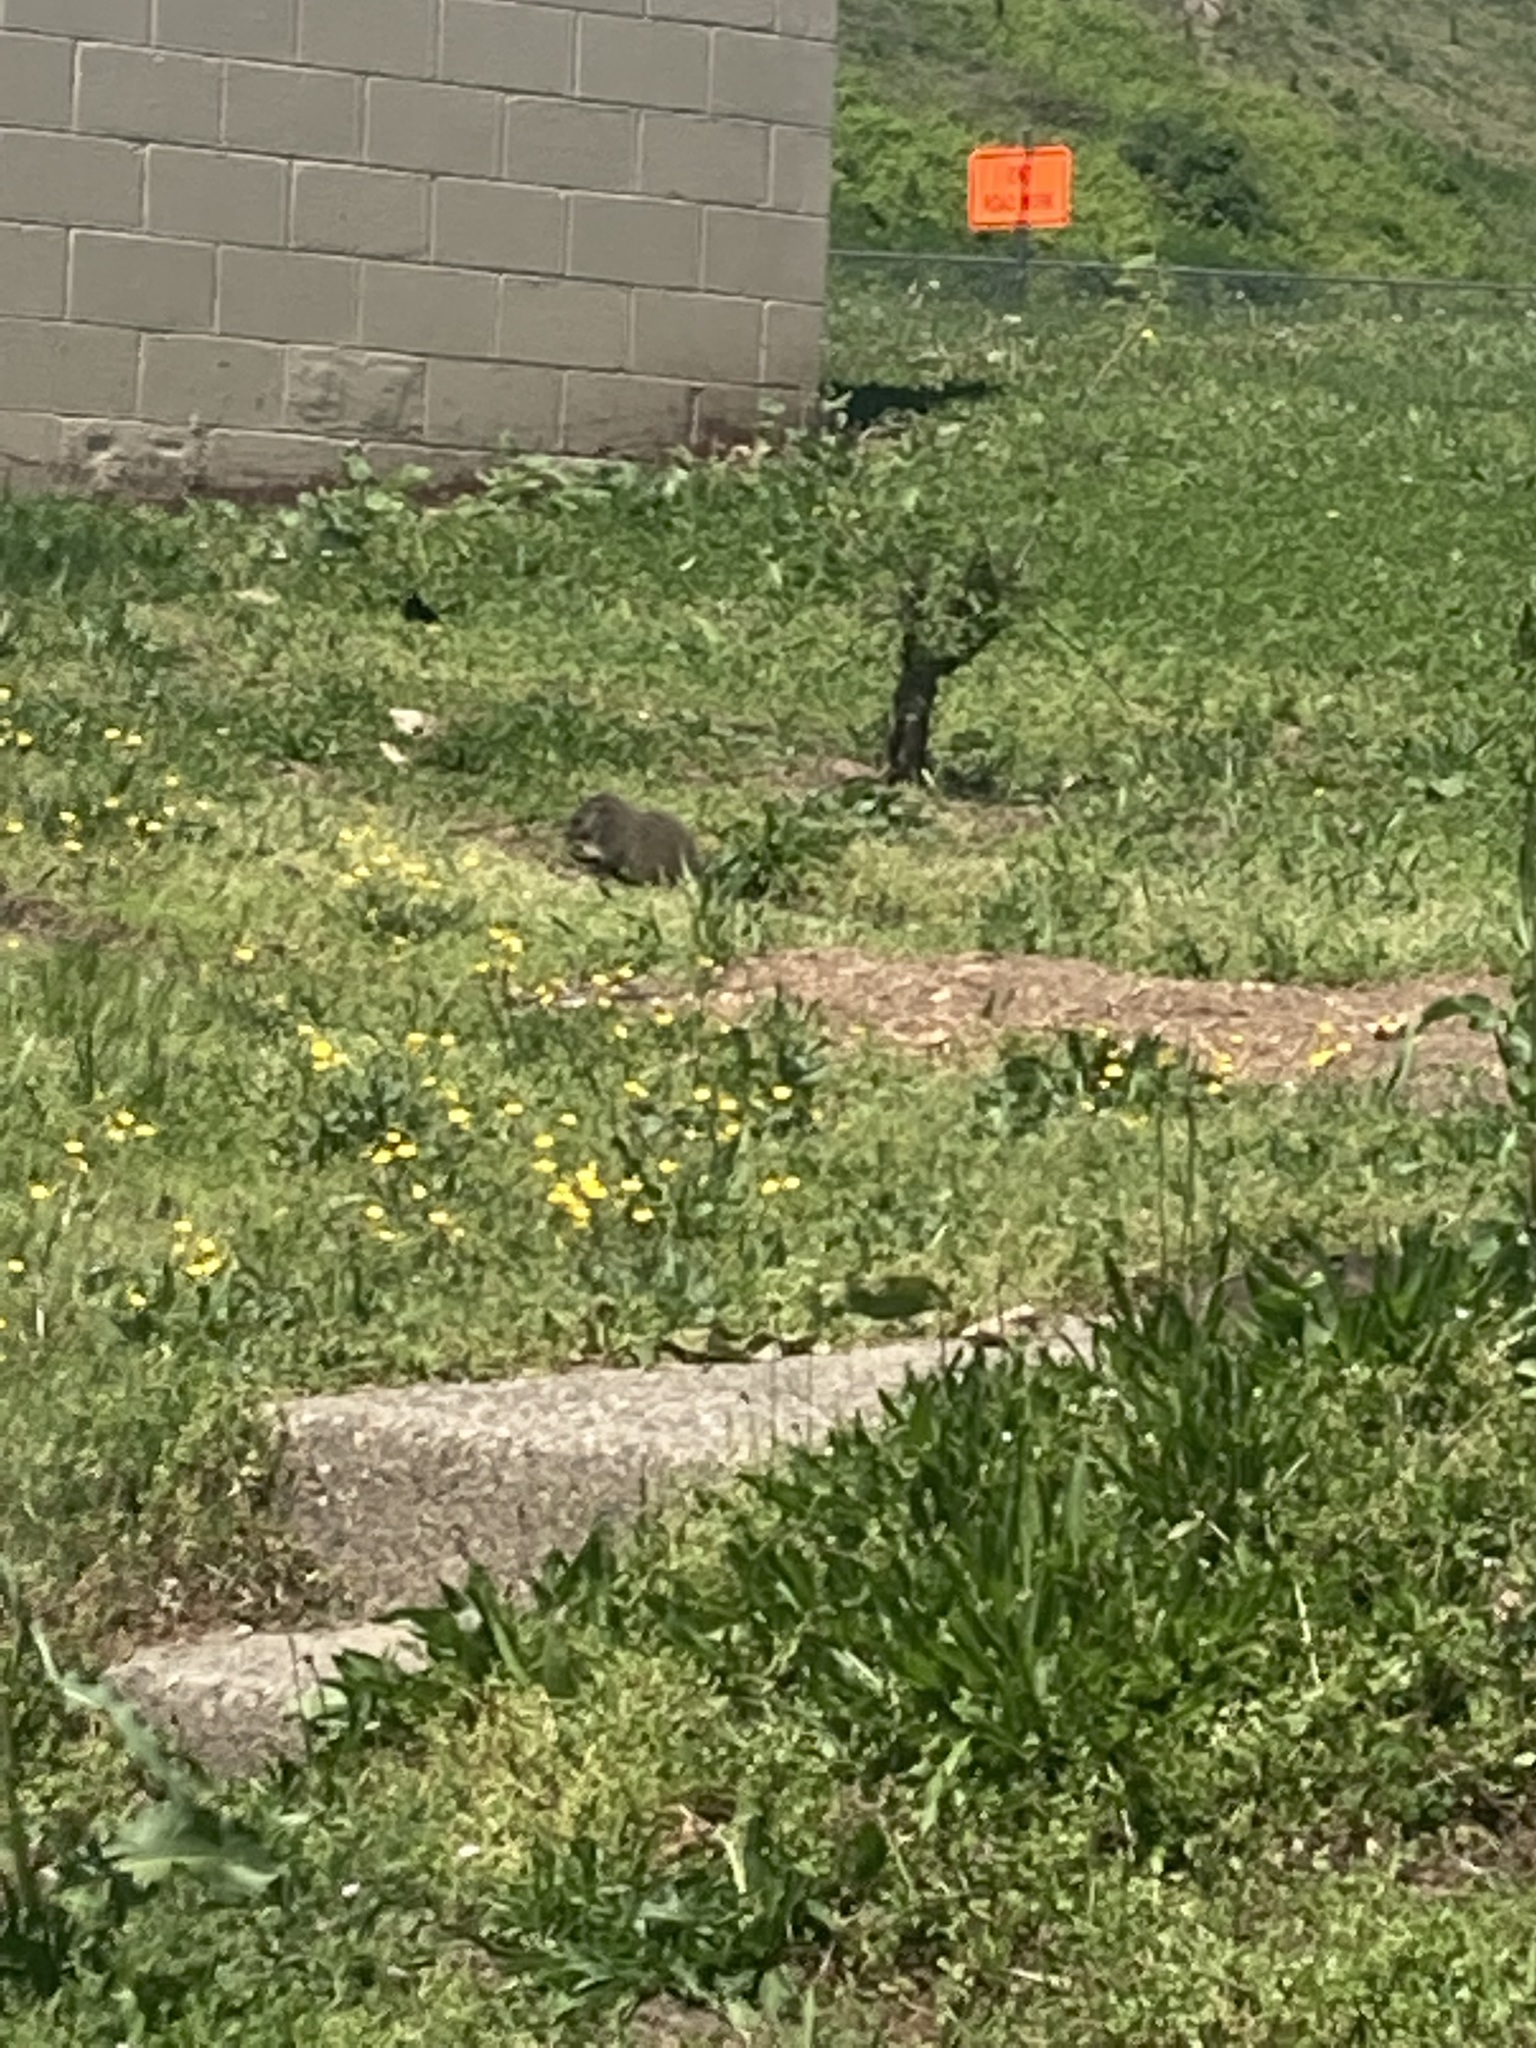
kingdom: Animalia
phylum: Chordata
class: Mammalia
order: Rodentia
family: Sciuridae
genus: Marmota
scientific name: Marmota monax
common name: Groundhog
